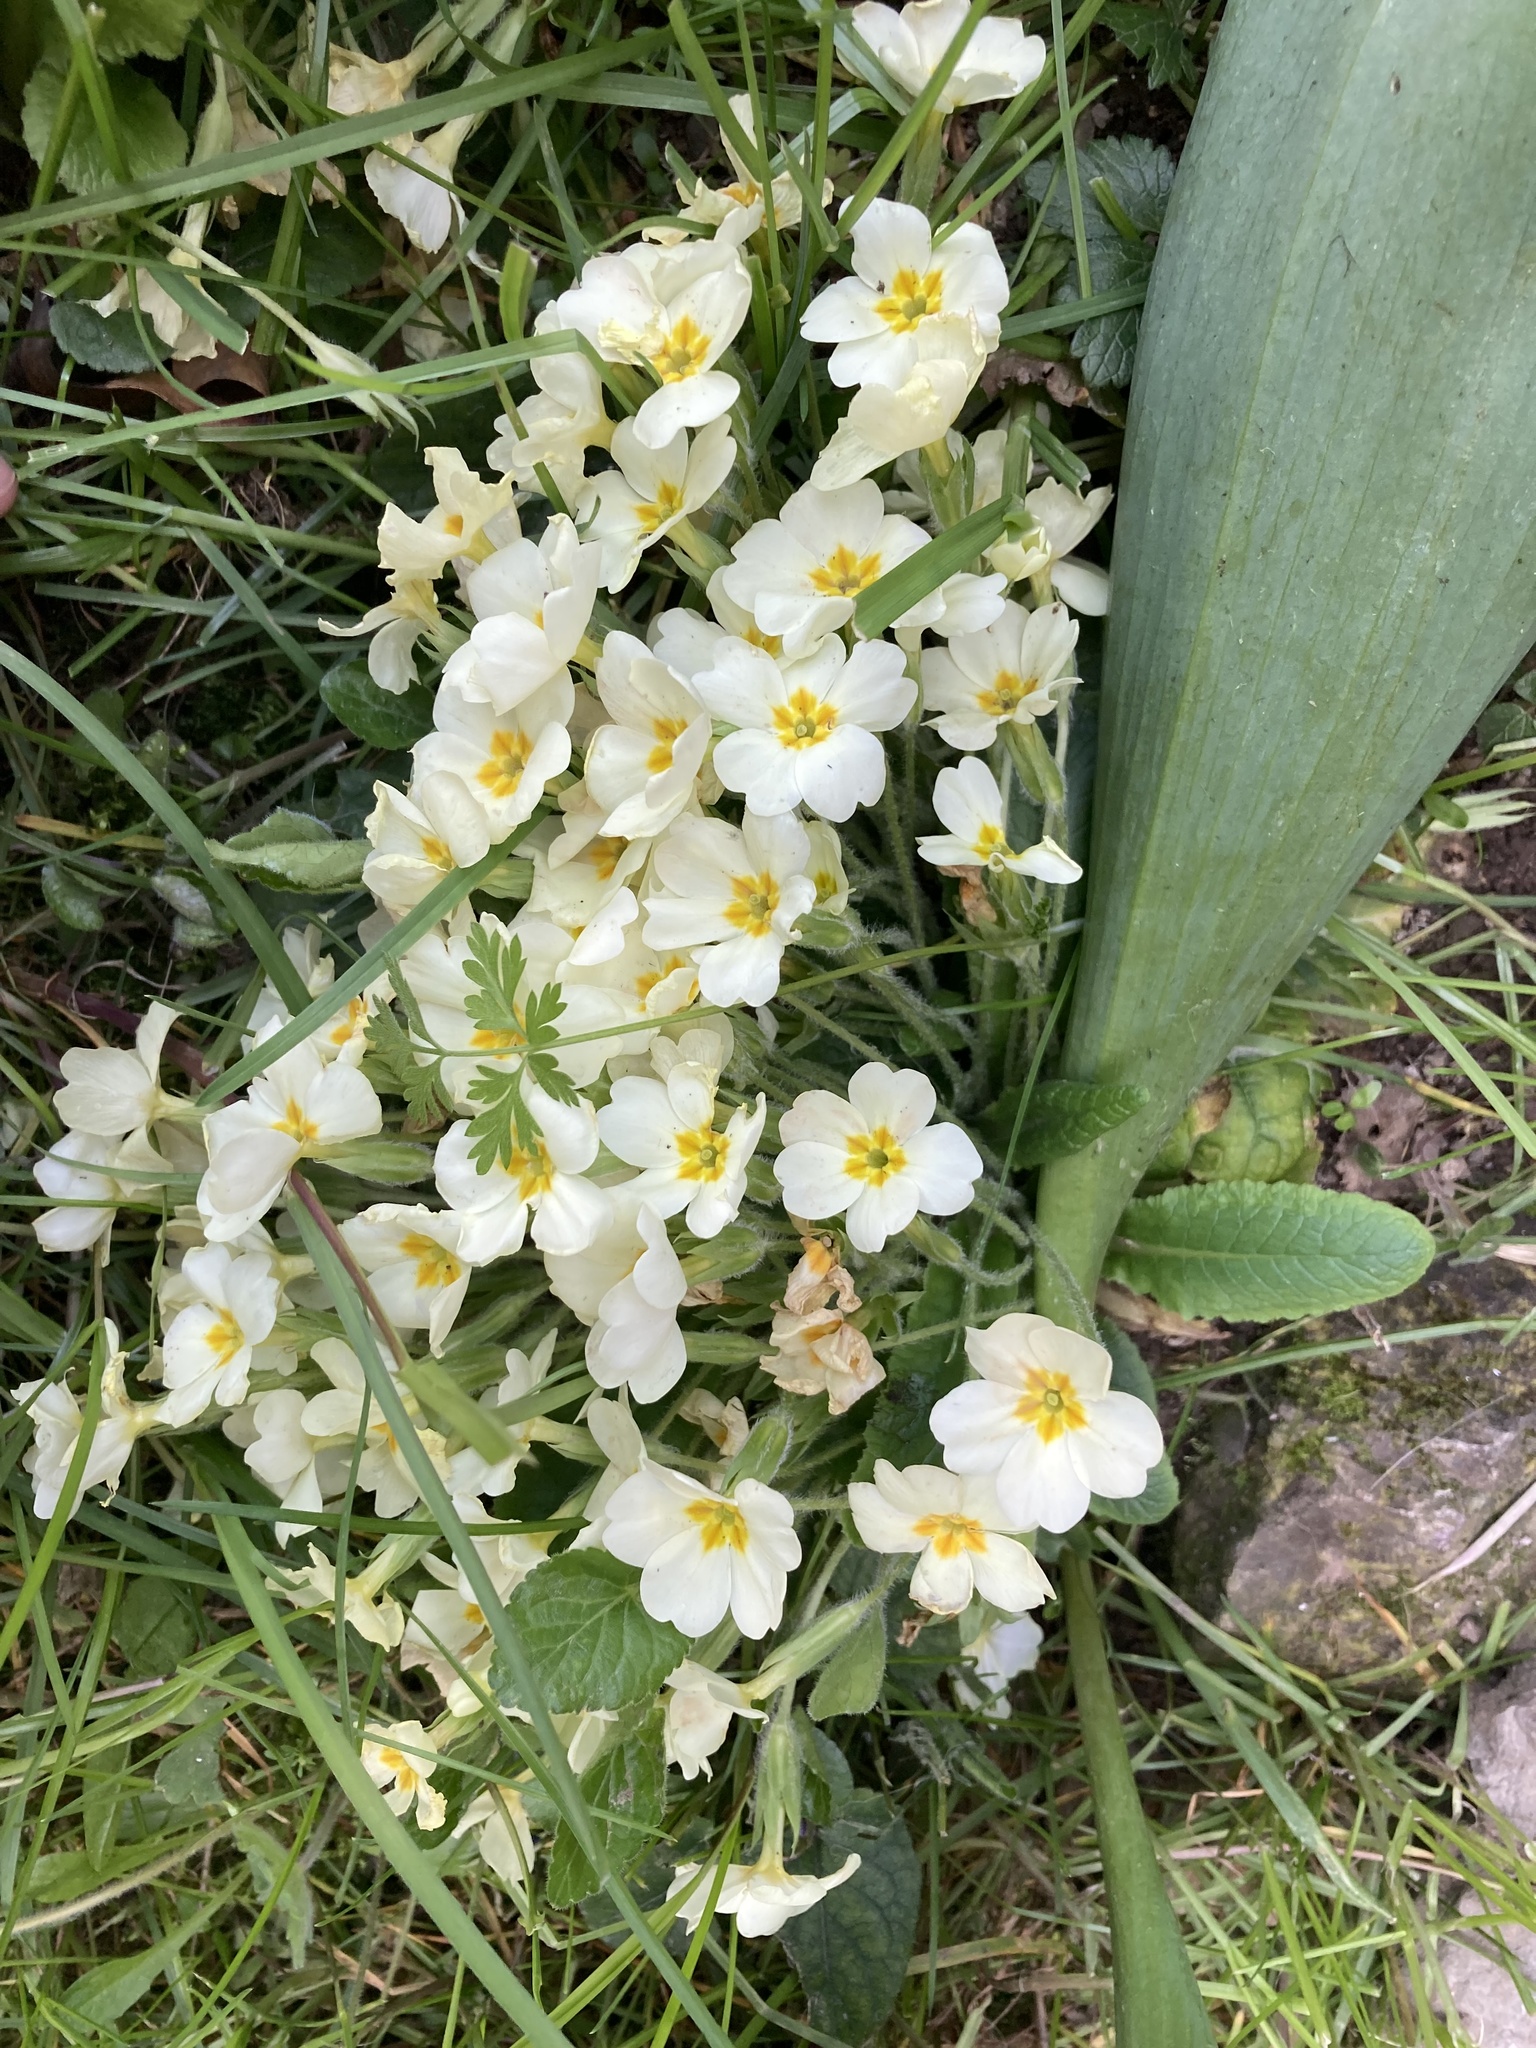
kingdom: Plantae
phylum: Tracheophyta
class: Magnoliopsida
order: Ericales
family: Primulaceae
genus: Primula
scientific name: Primula vulgaris
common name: Primrose
